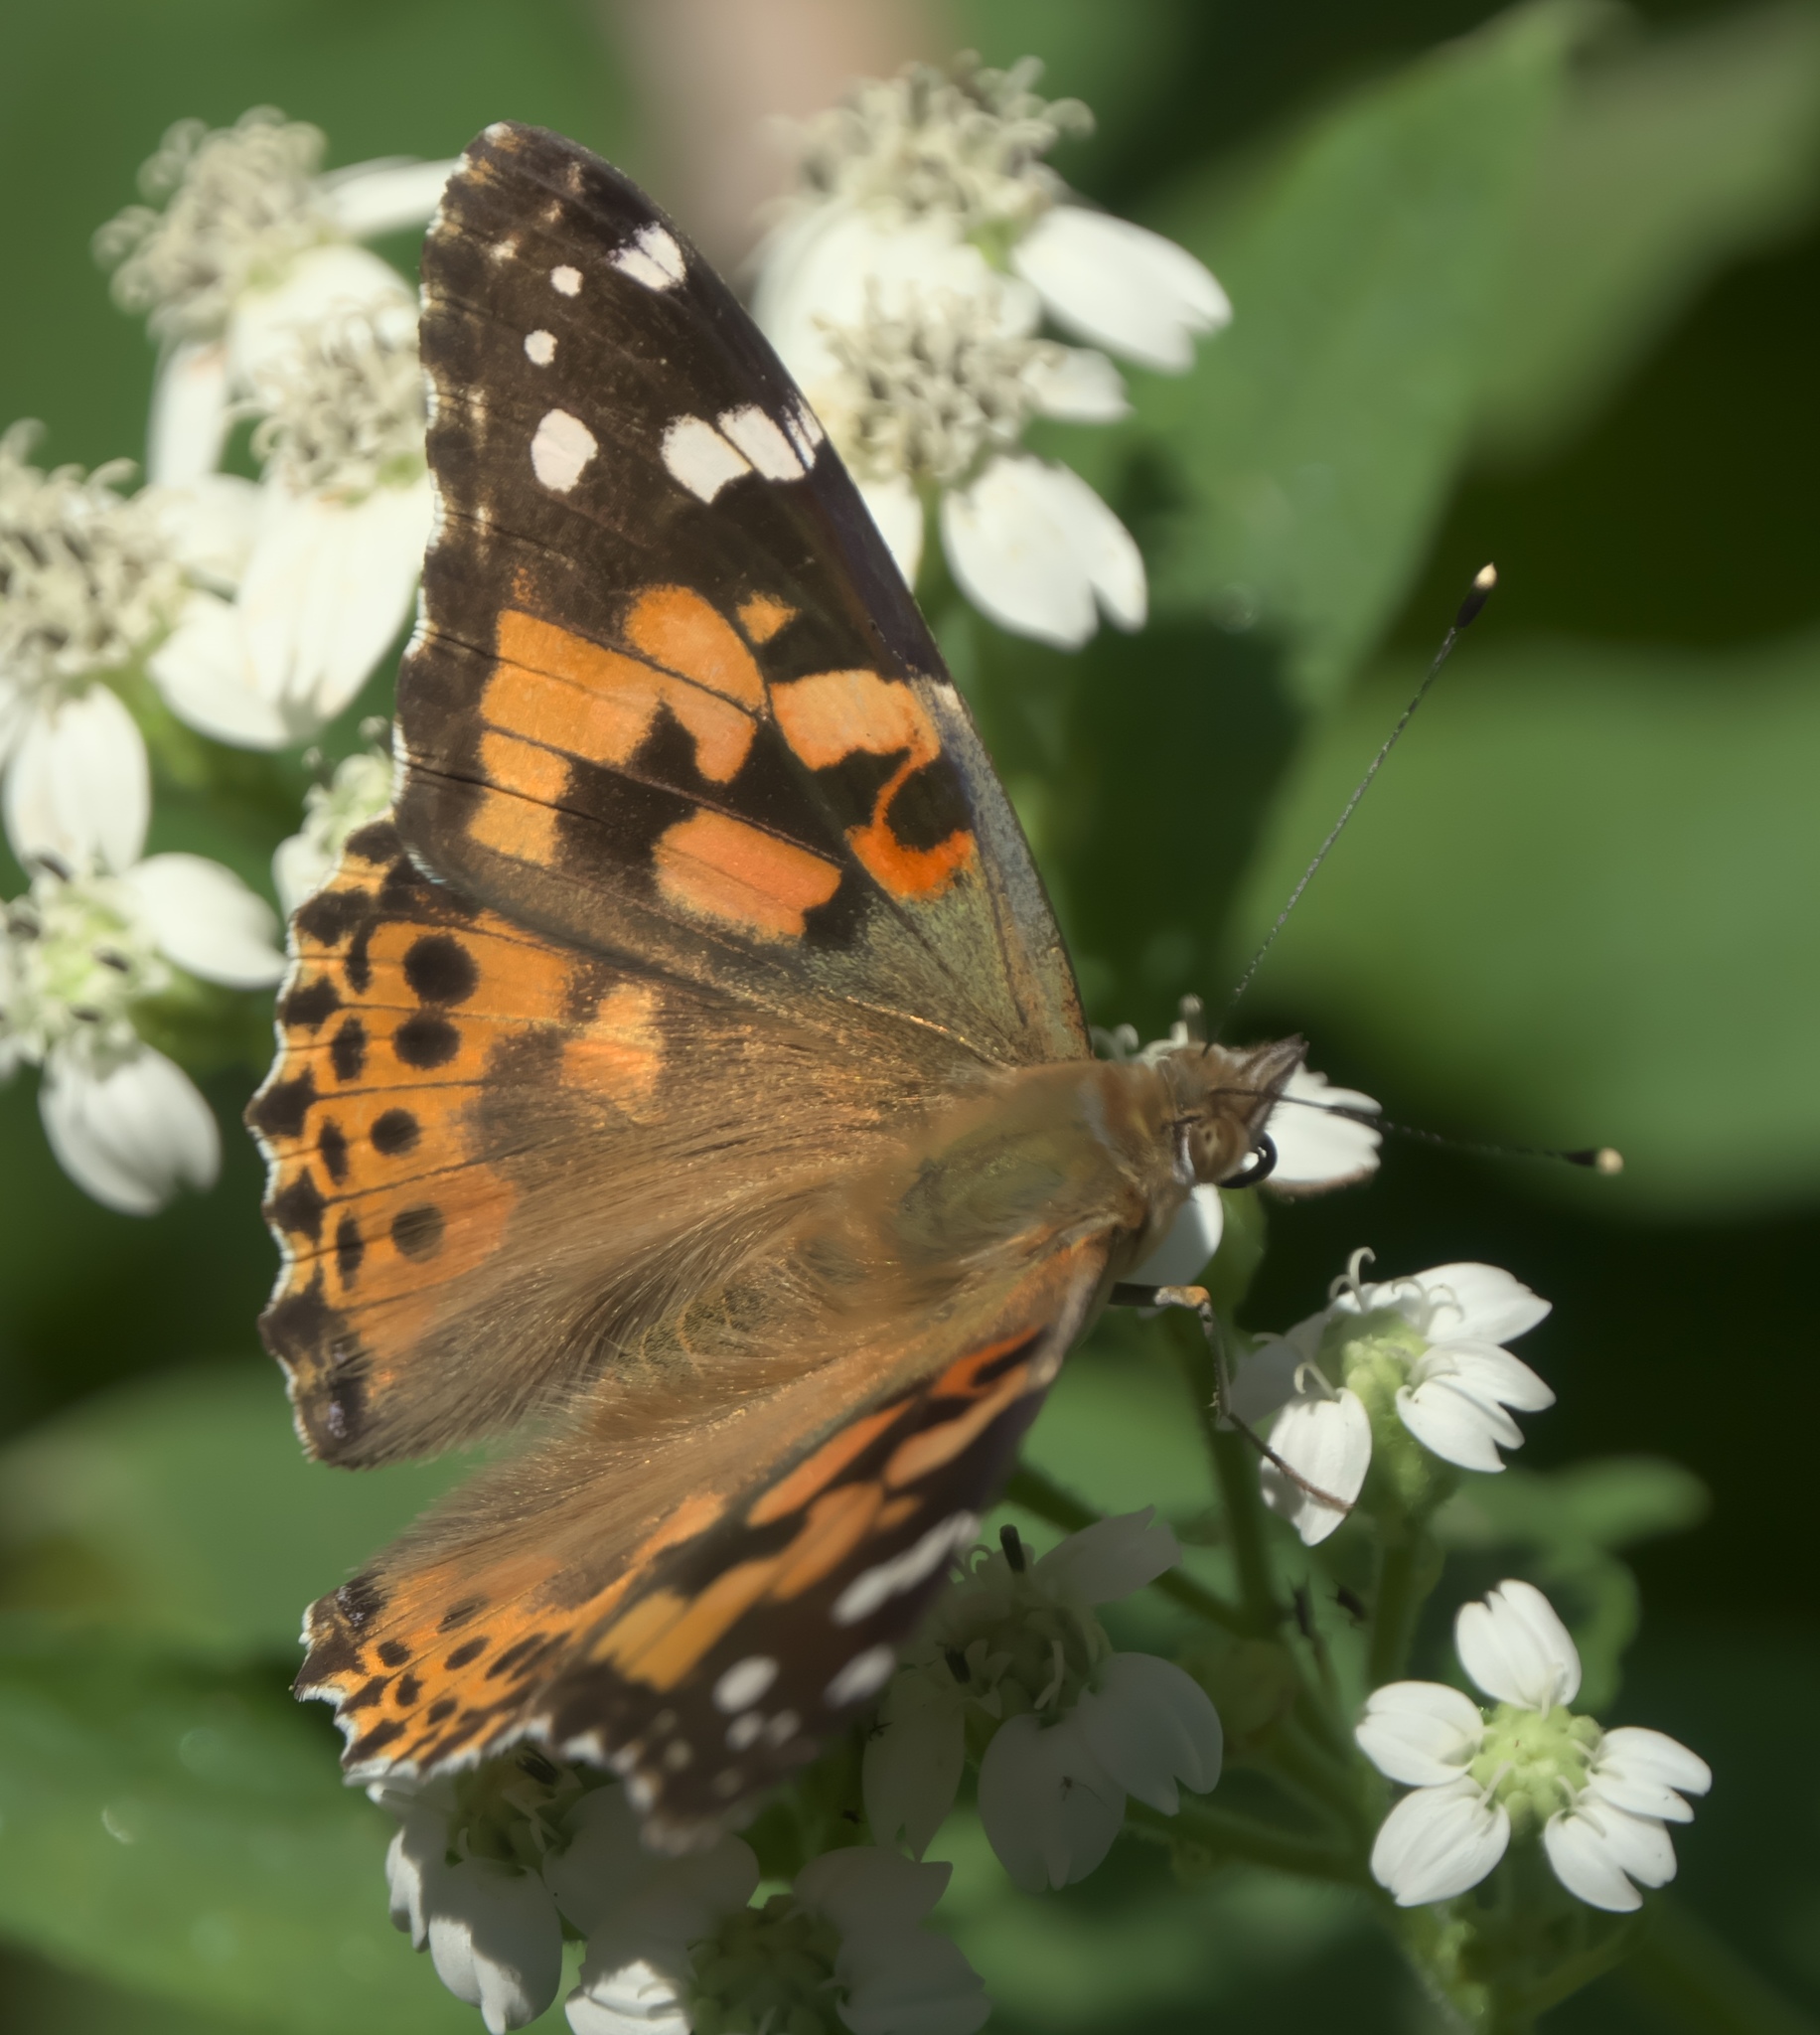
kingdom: Animalia
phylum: Arthropoda
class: Insecta
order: Lepidoptera
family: Nymphalidae
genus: Vanessa
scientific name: Vanessa cardui
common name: Painted lady
